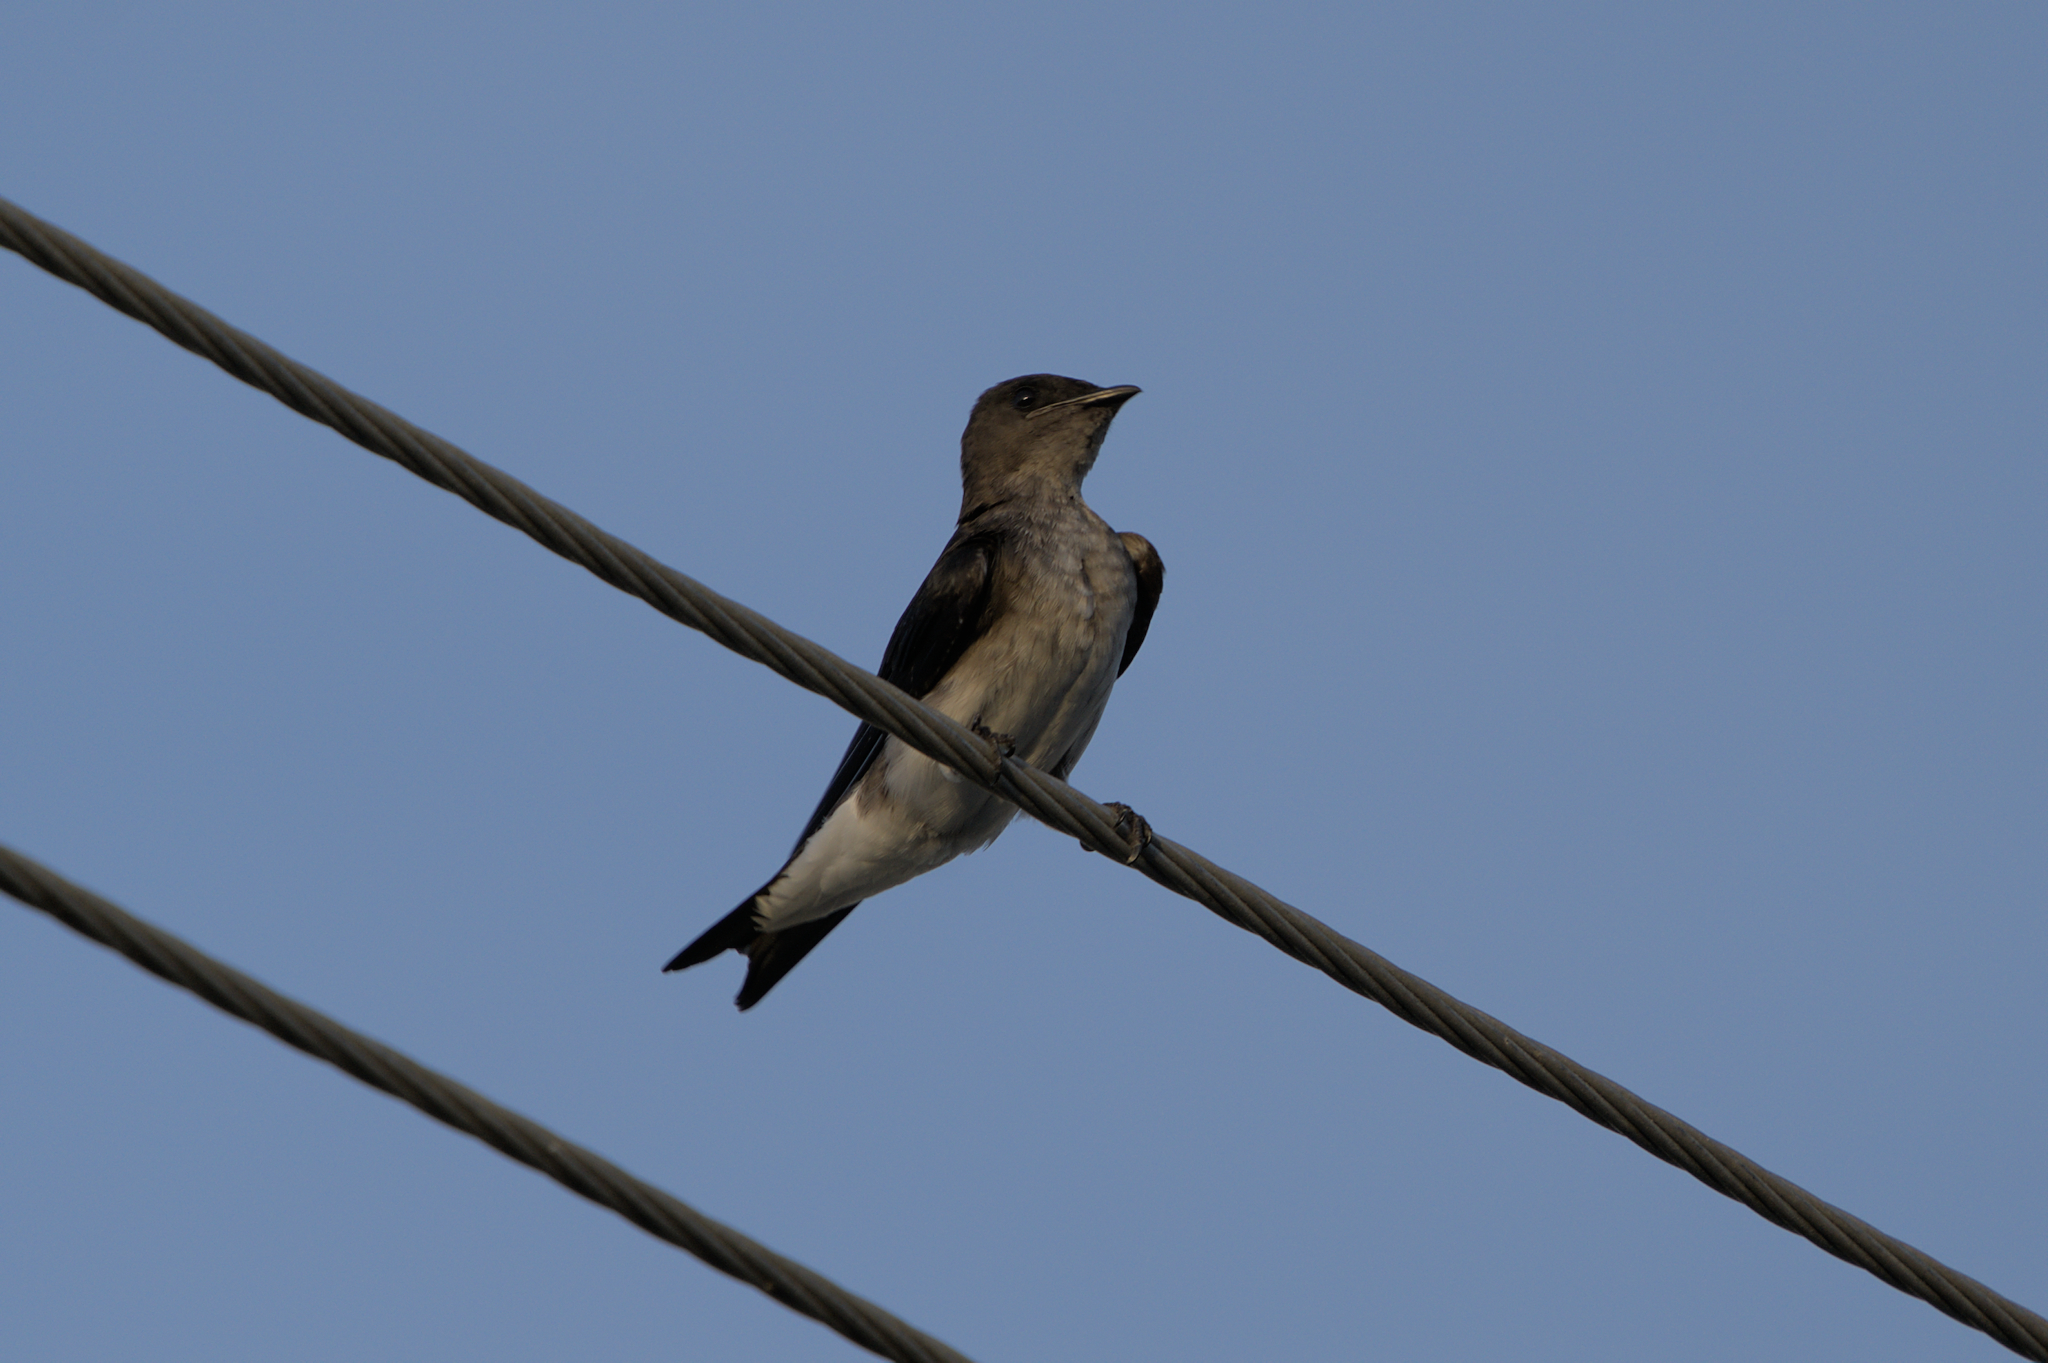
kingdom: Animalia
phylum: Chordata
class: Aves
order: Passeriformes
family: Hirundinidae
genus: Progne
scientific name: Progne chalybea
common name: Grey-breasted martin
